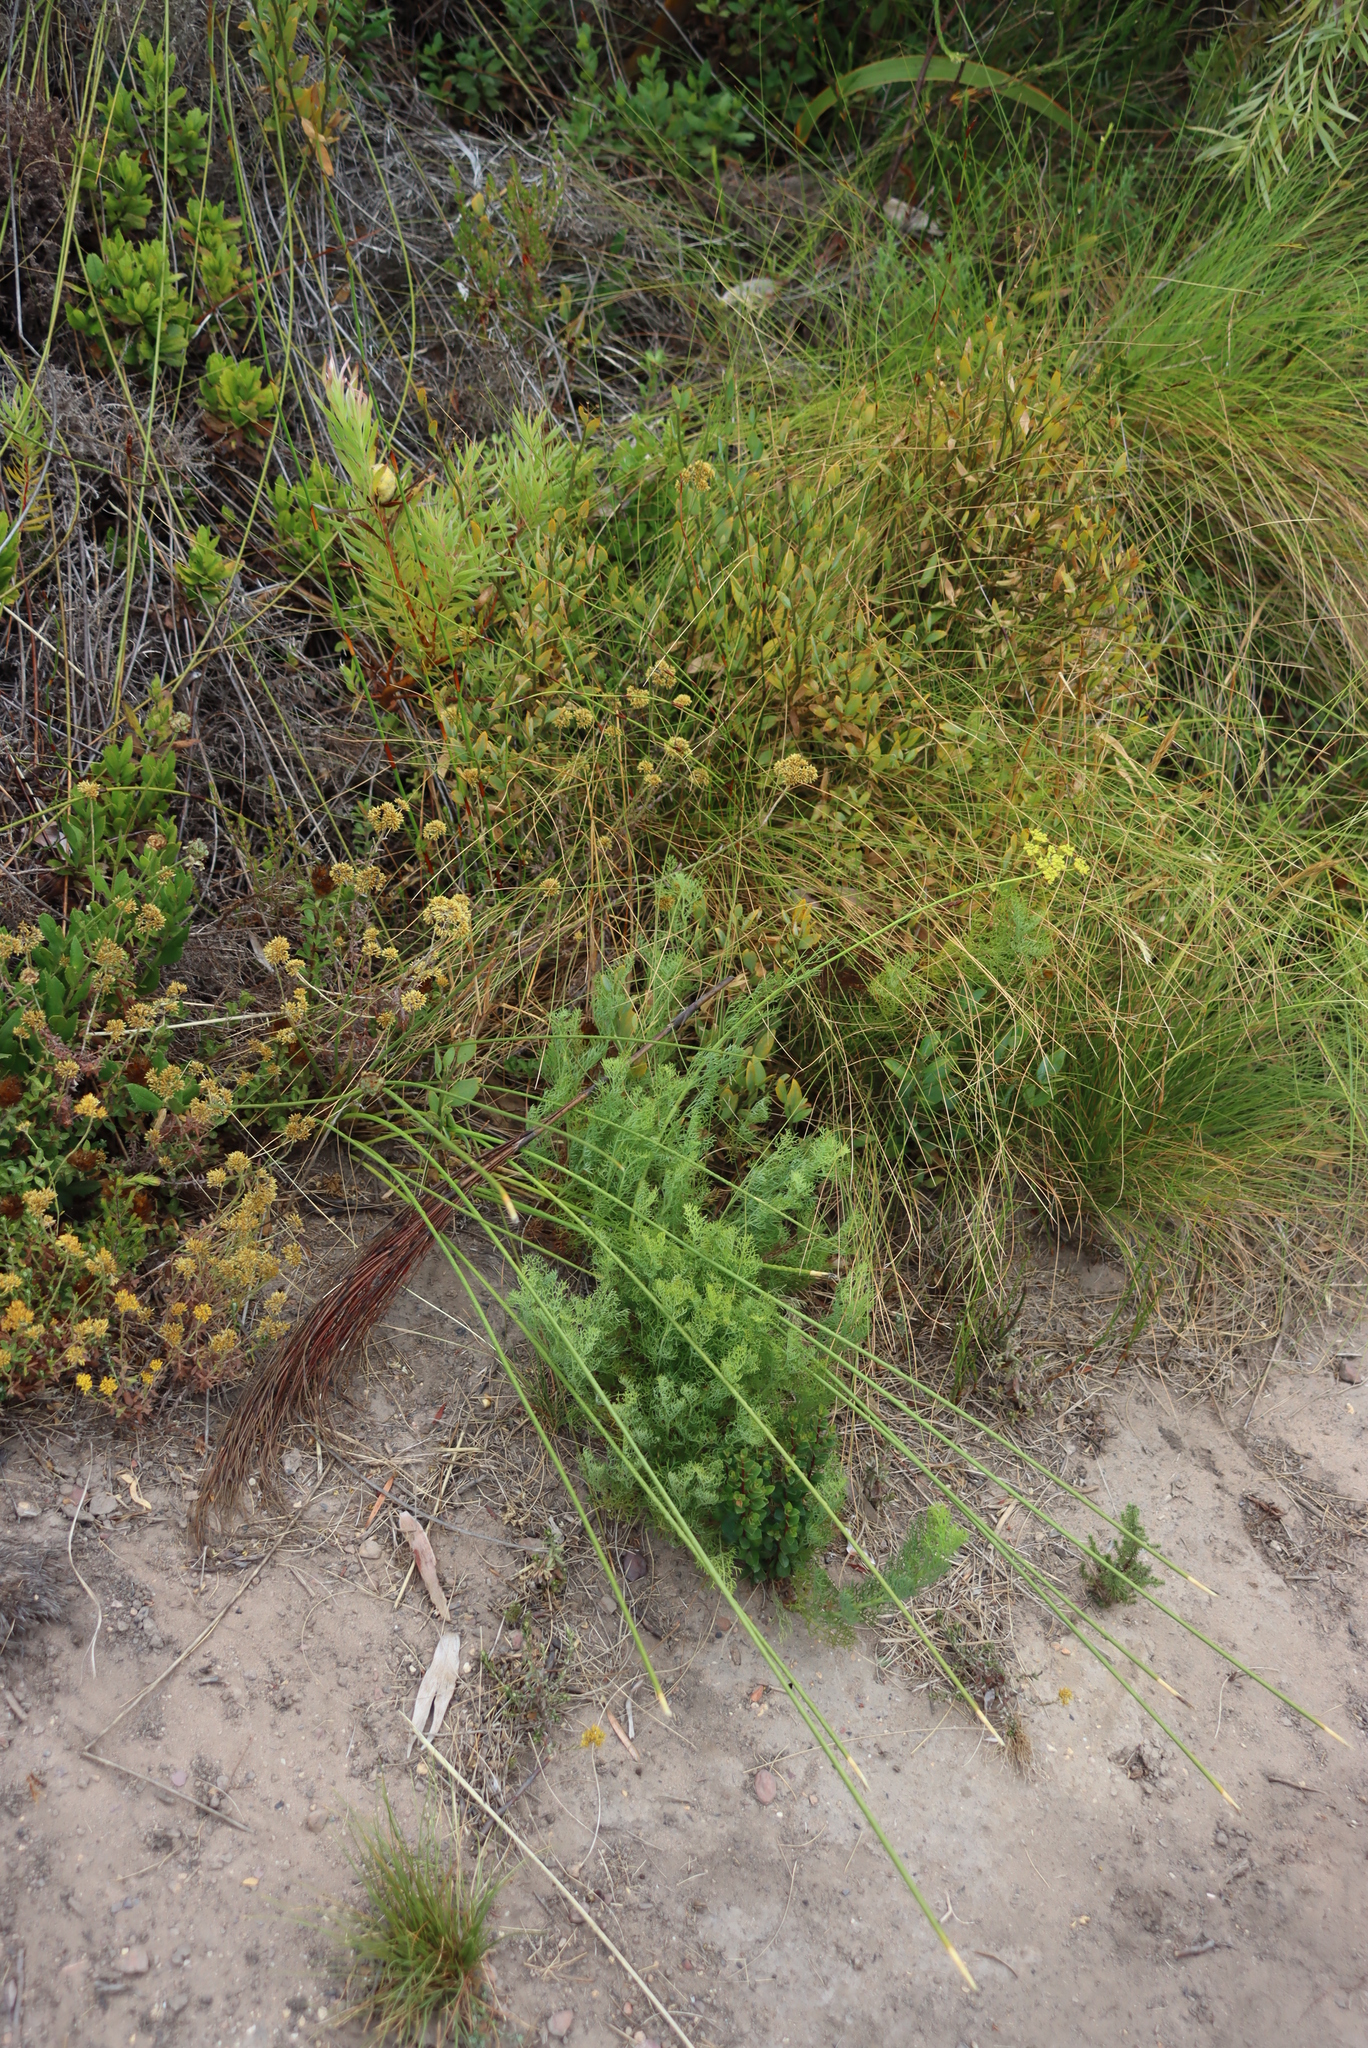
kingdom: Plantae
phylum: Tracheophyta
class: Magnoliopsida
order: Apiales
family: Apiaceae
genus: Notobubon
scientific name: Notobubon ferulaceum
